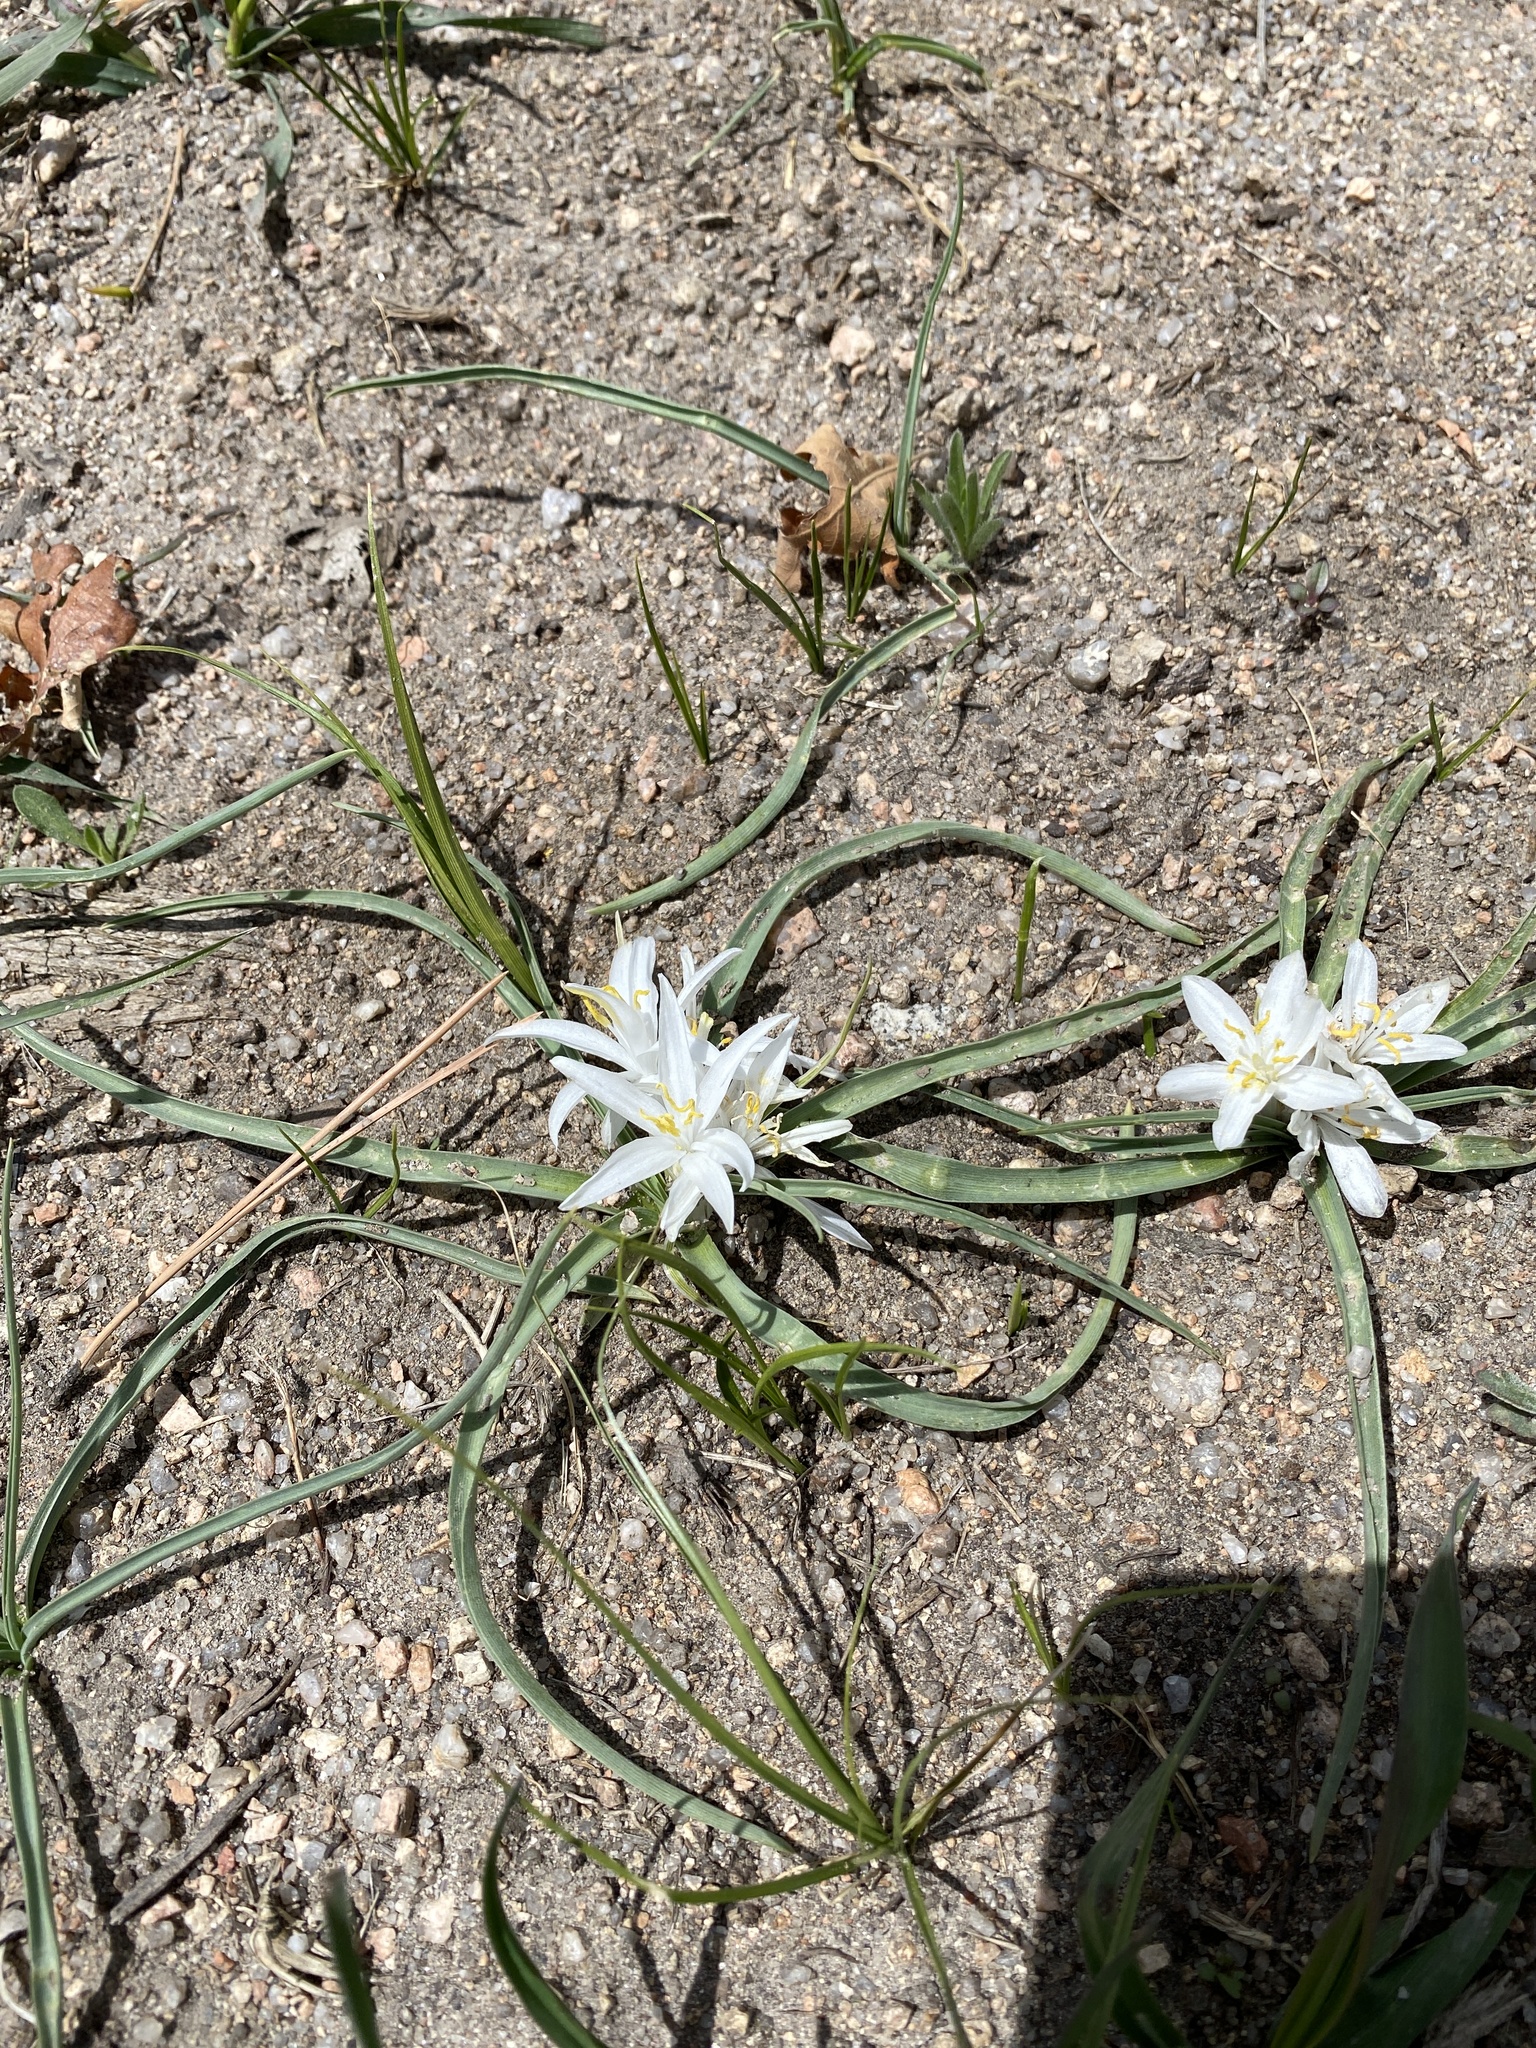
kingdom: Plantae
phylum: Tracheophyta
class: Liliopsida
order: Asparagales
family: Asparagaceae
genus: Leucocrinum
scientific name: Leucocrinum montanum
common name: Mountain-lily
